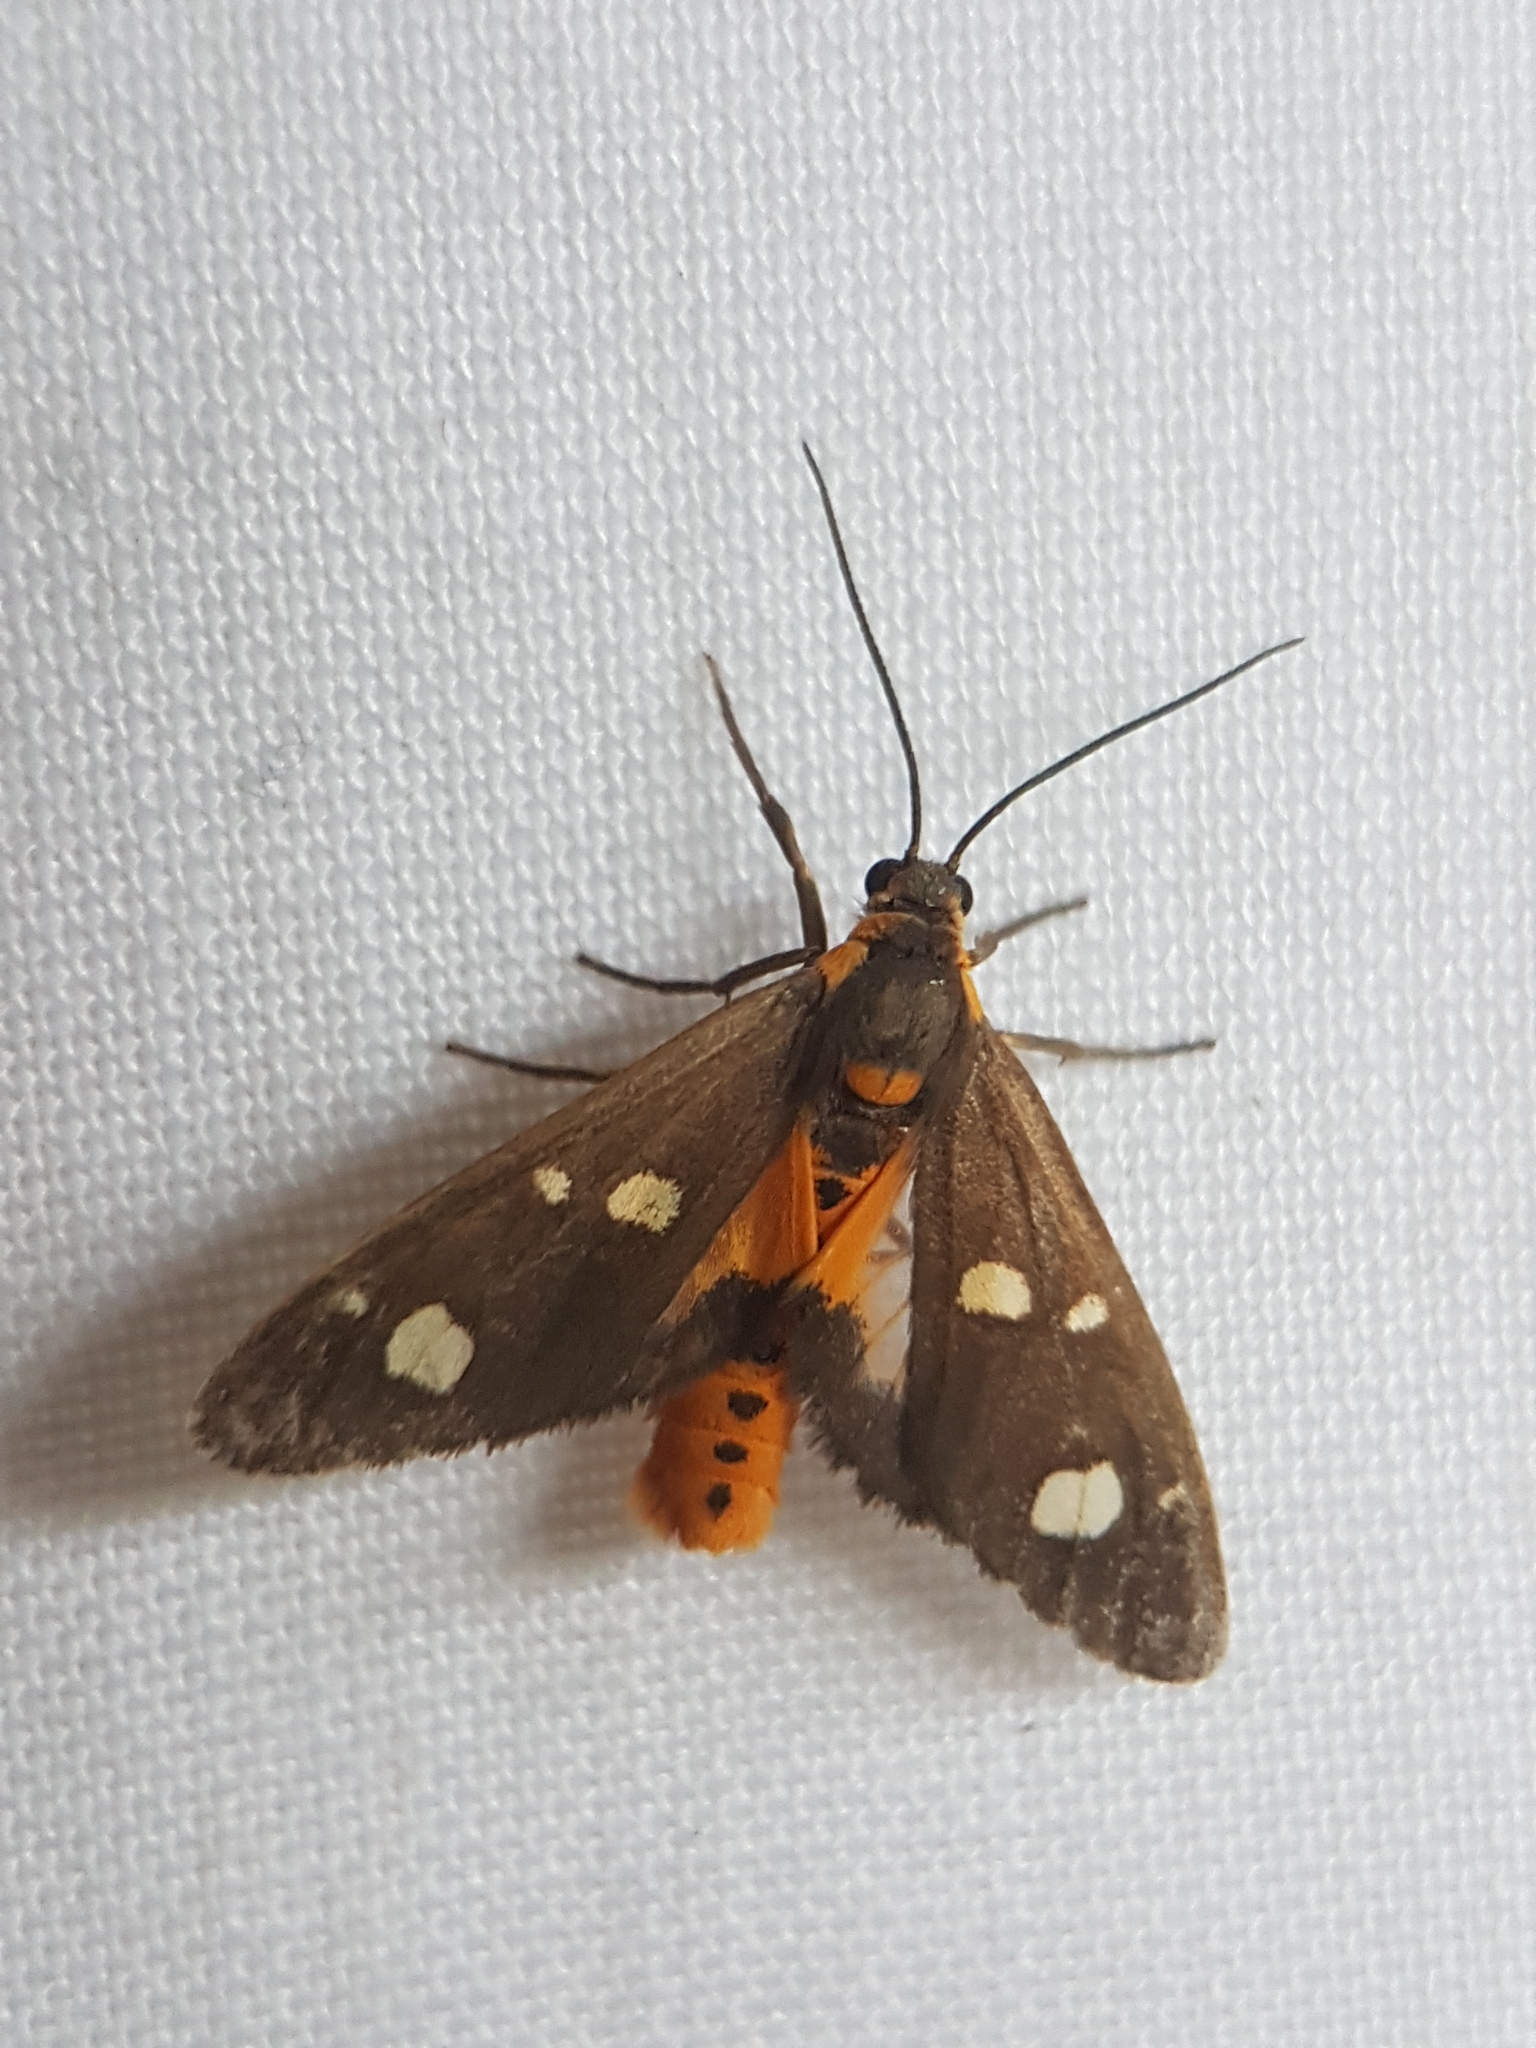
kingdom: Animalia
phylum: Arthropoda
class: Insecta
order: Lepidoptera
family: Erebidae
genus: Dysauxes
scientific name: Dysauxes punctata
